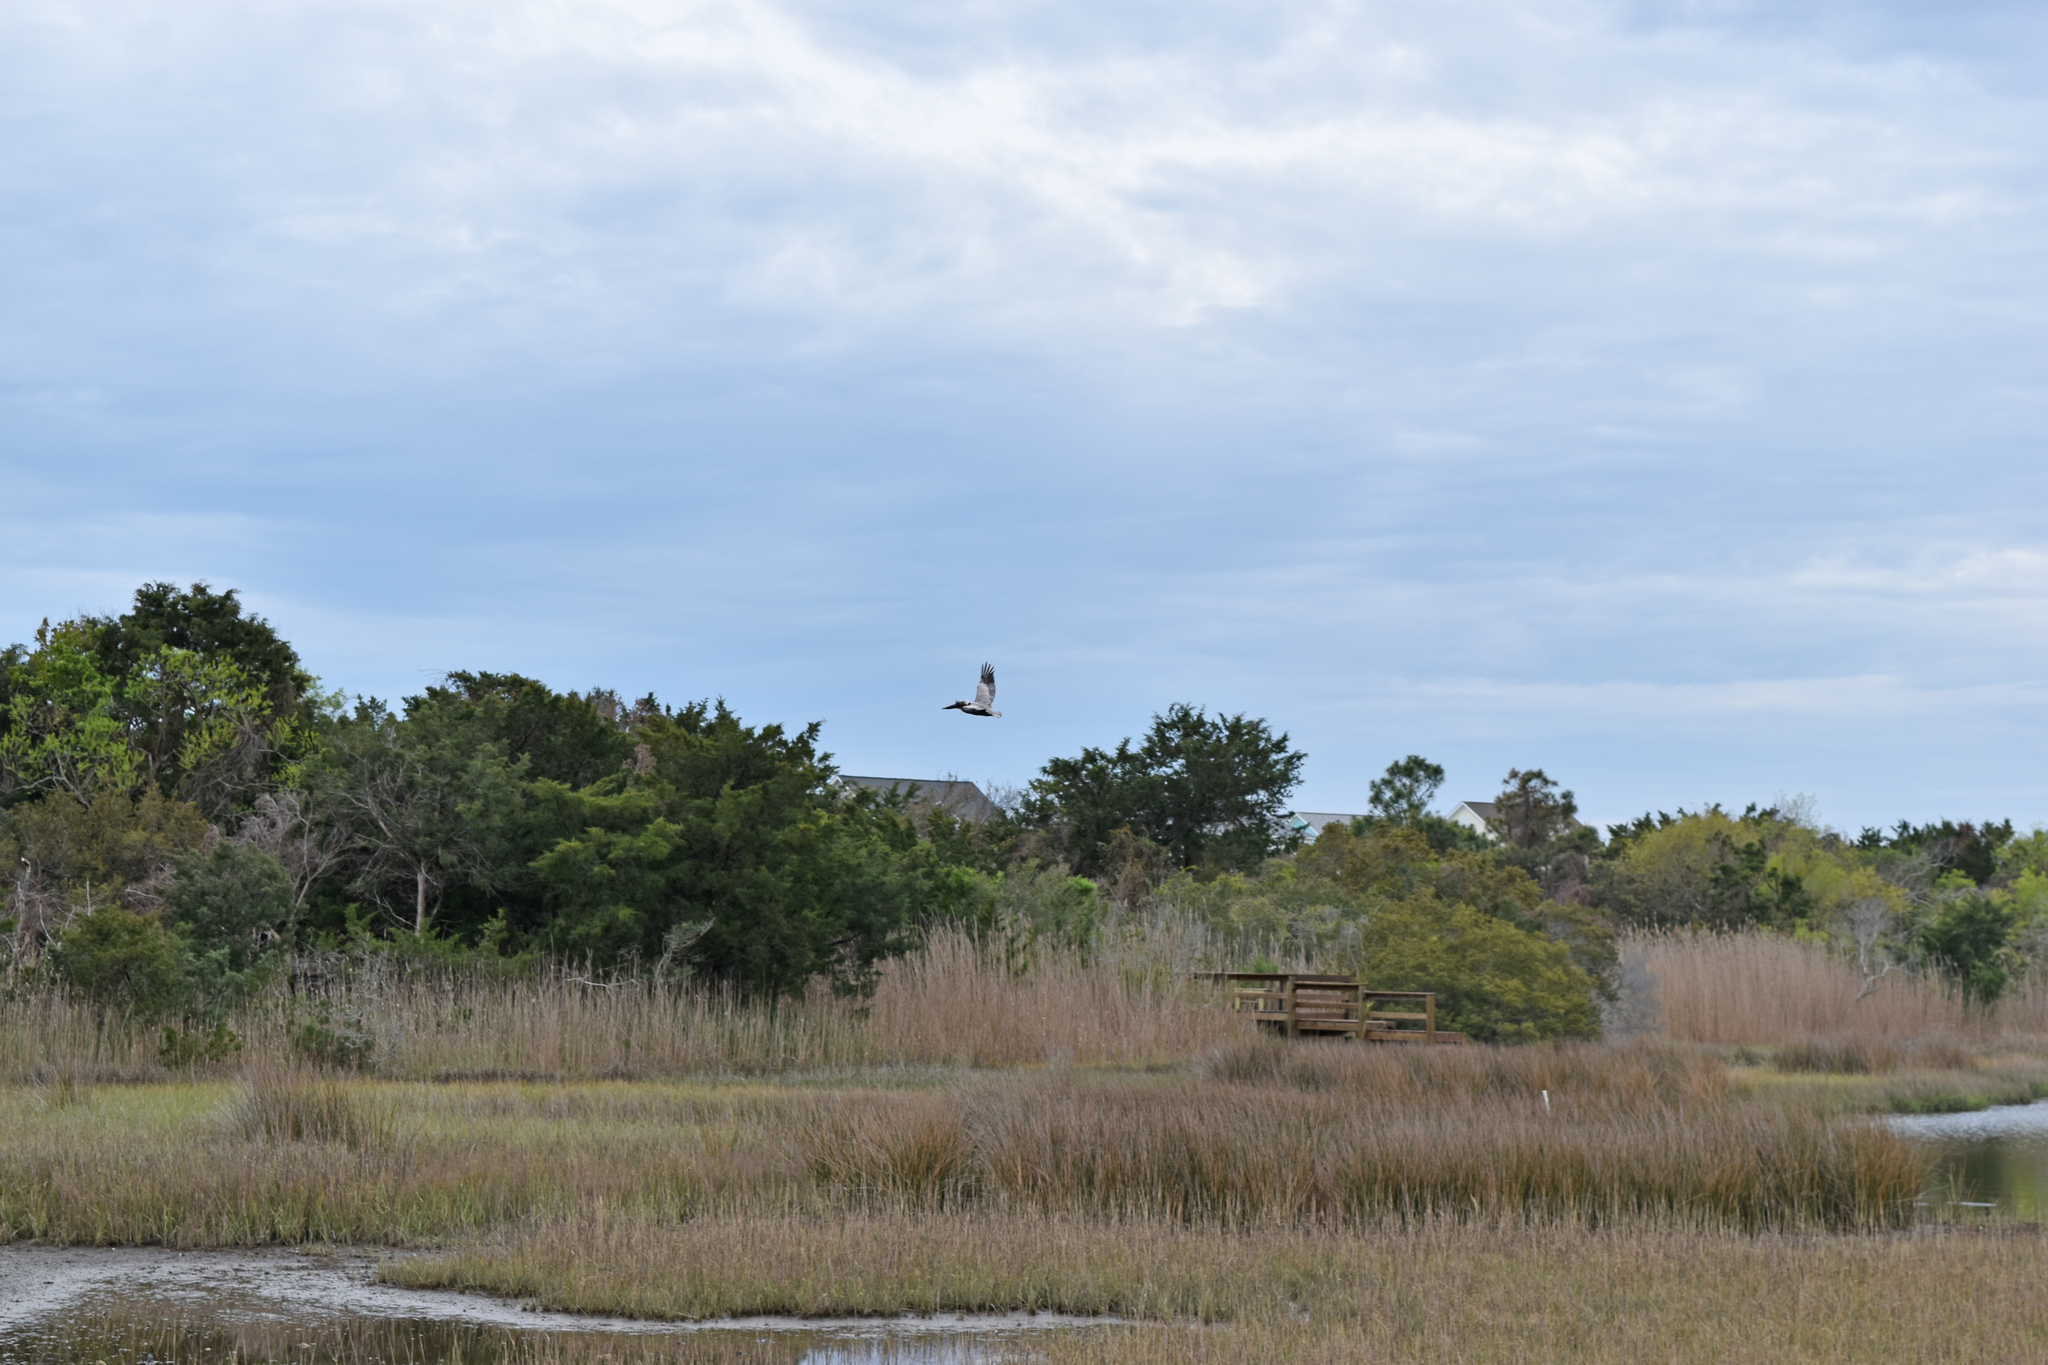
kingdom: Animalia
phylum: Chordata
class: Aves
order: Pelecaniformes
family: Pelecanidae
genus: Pelecanus
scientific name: Pelecanus occidentalis
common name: Brown pelican
